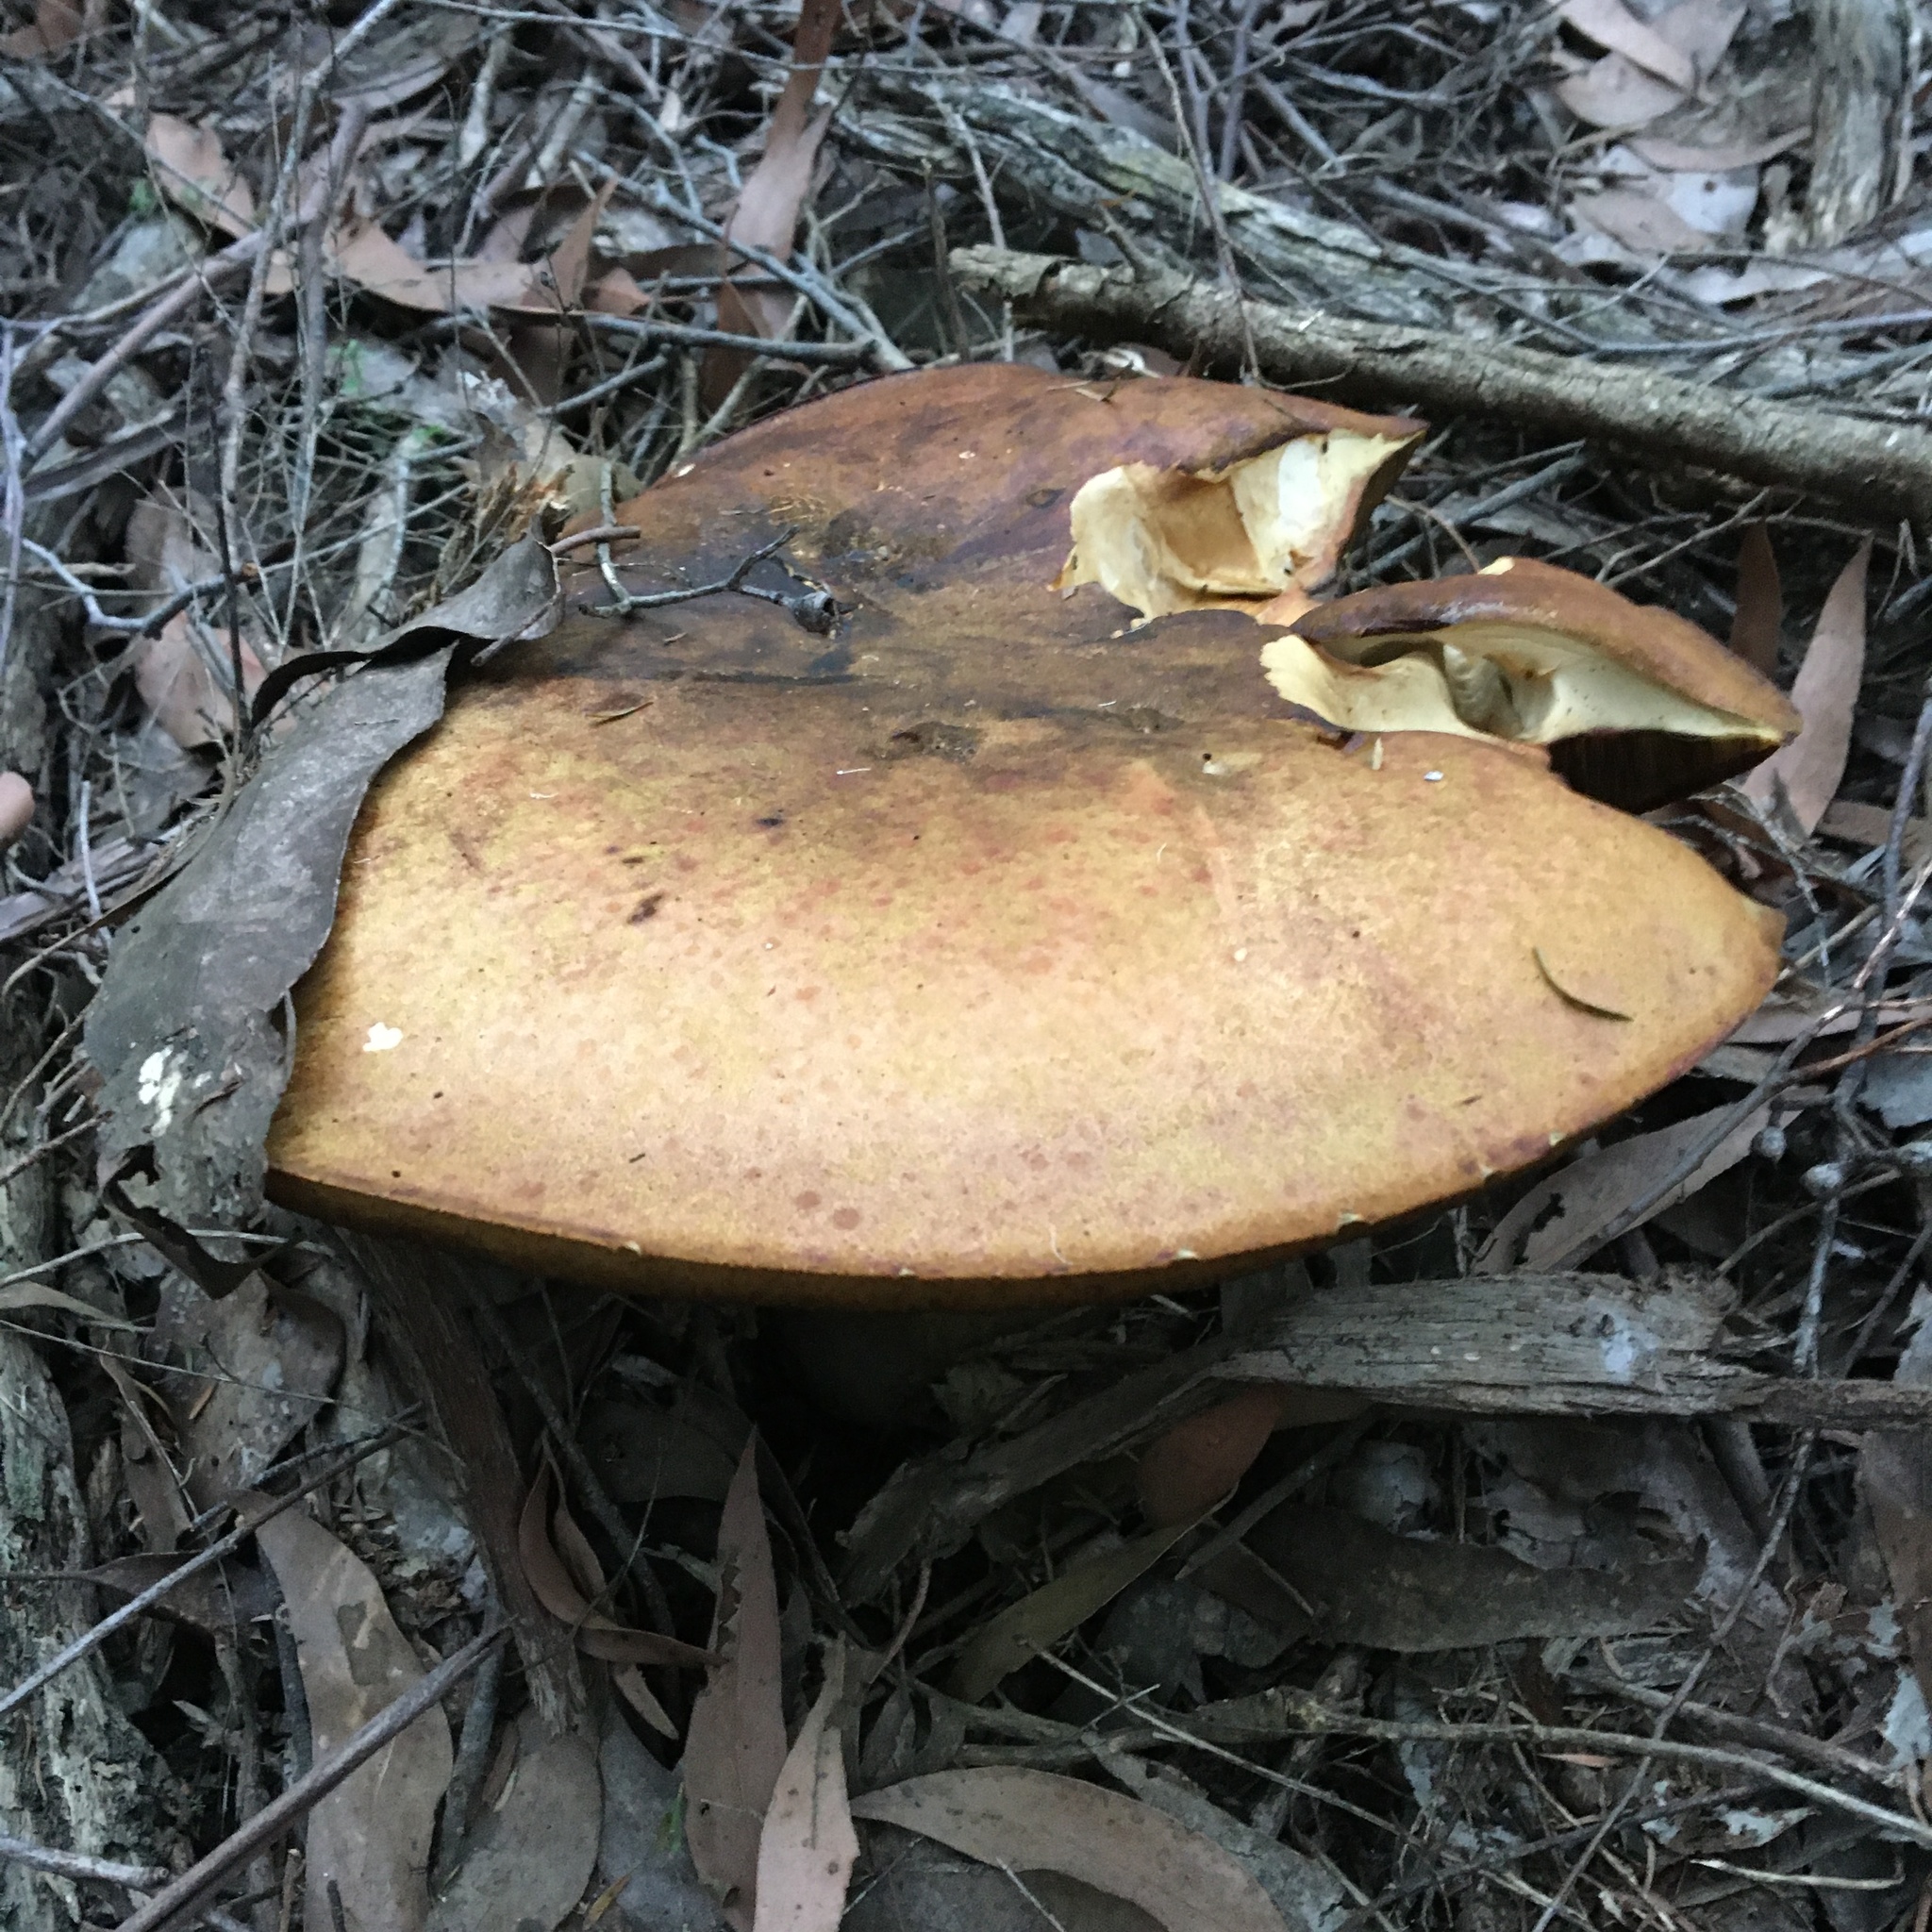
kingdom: Fungi
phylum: Basidiomycota
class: Agaricomycetes
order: Boletales
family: Boletinellaceae
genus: Phlebopus
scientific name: Phlebopus marginatus
